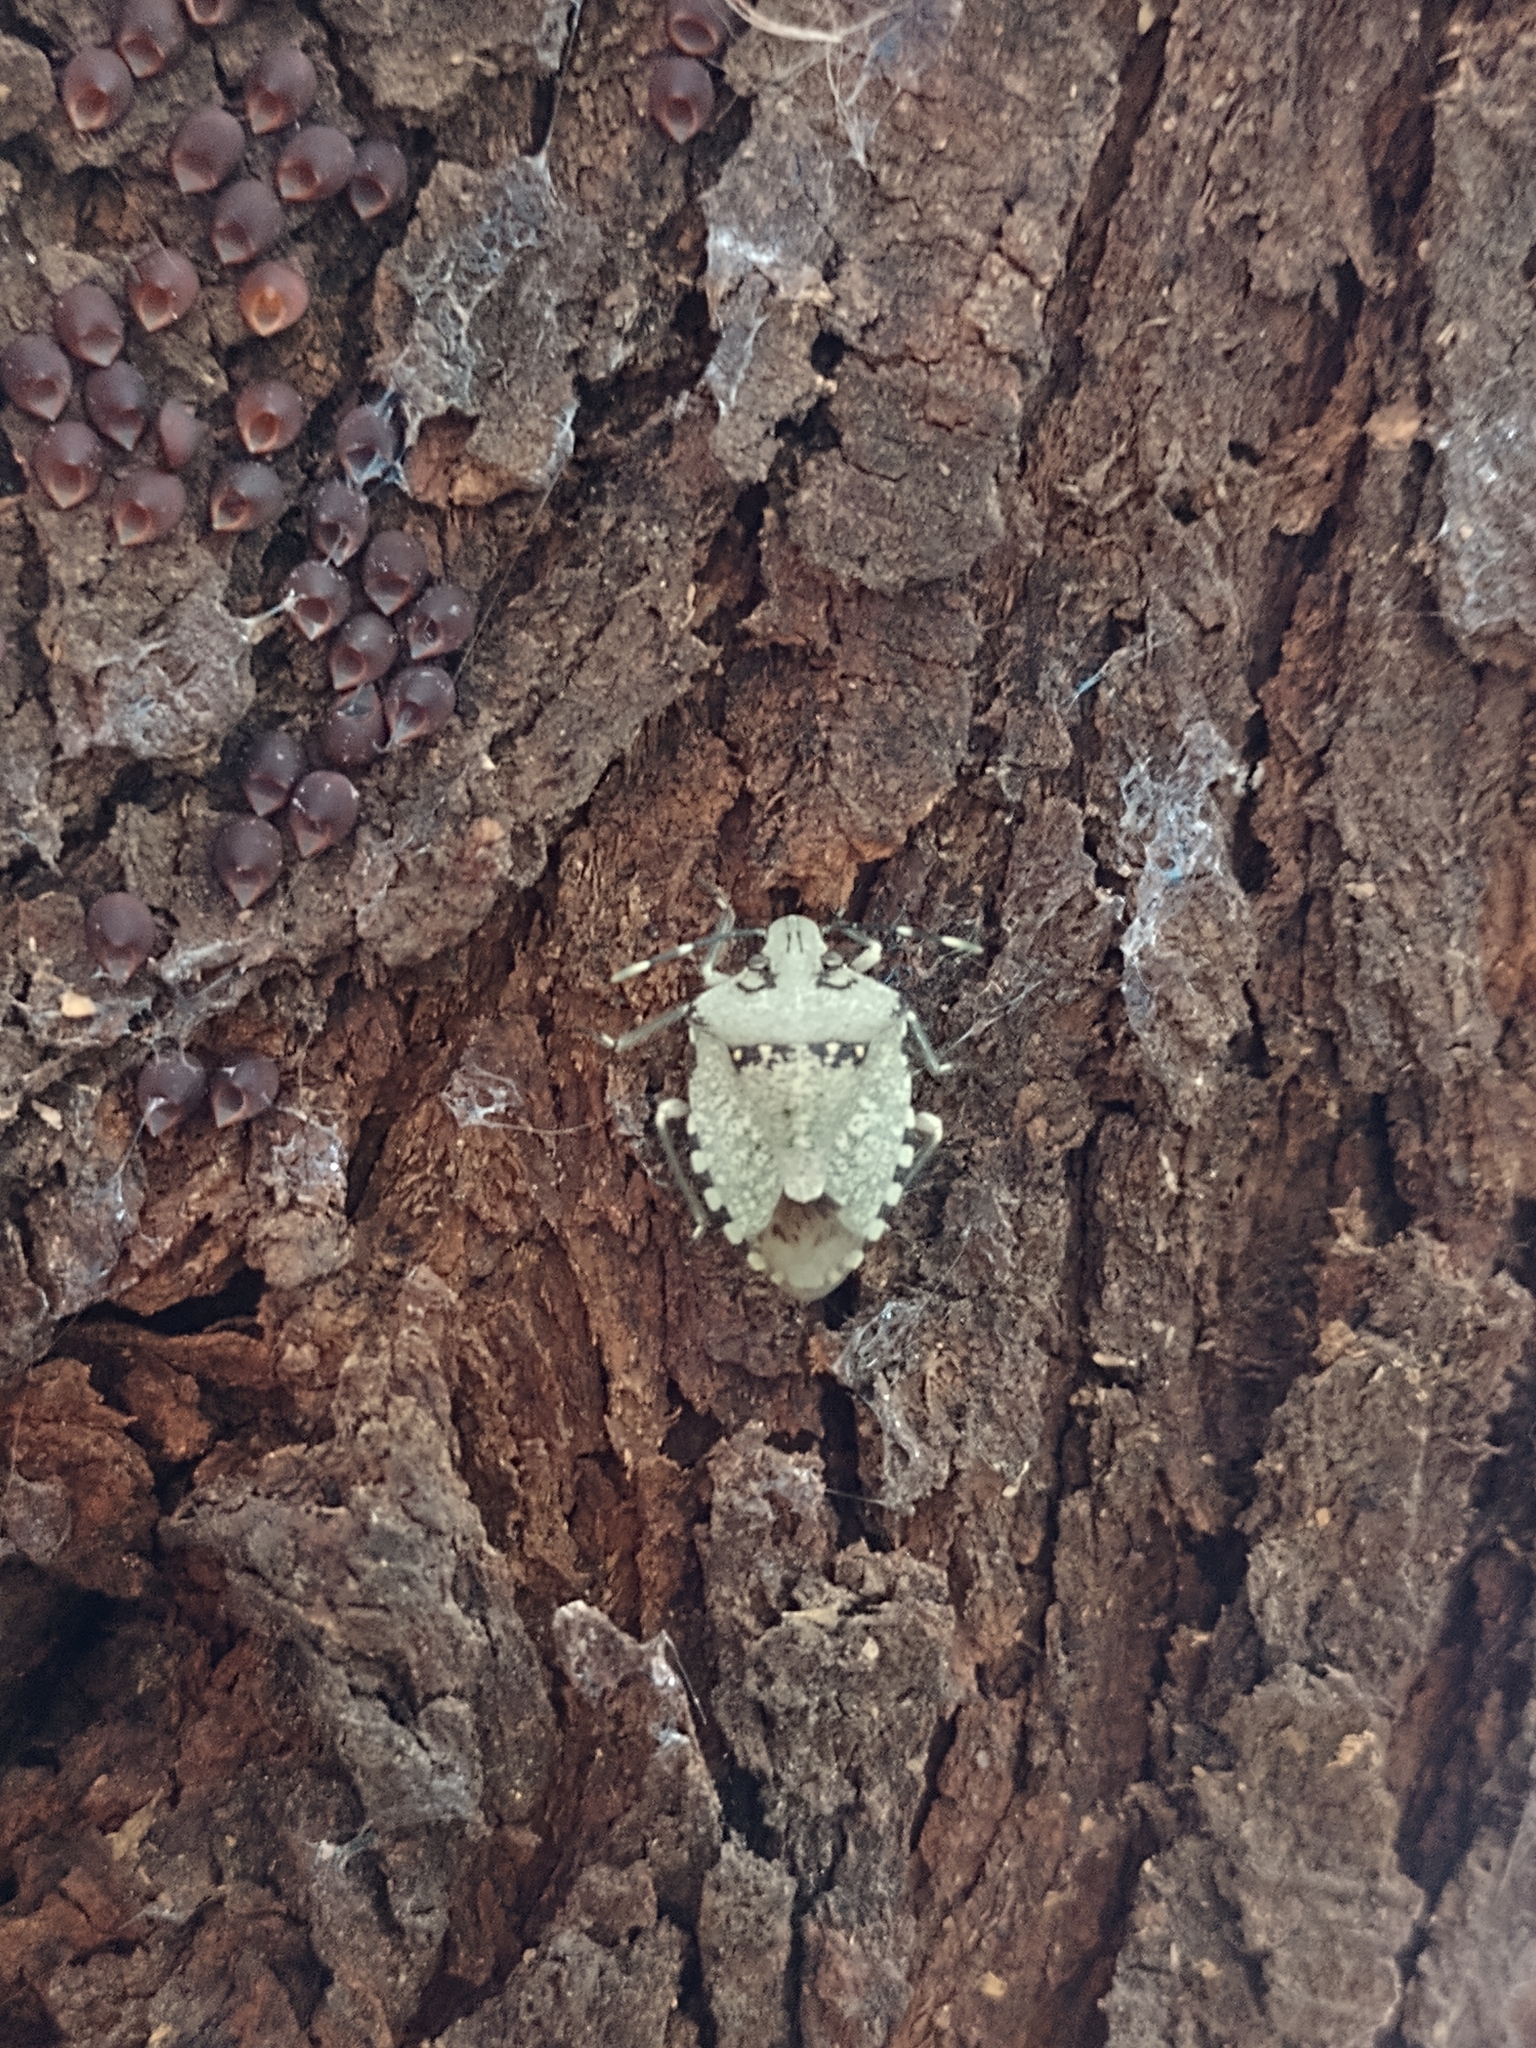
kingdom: Animalia
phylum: Arthropoda
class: Insecta
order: Hemiptera
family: Pentatomidae
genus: Chinavia
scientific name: Chinavia musiva
